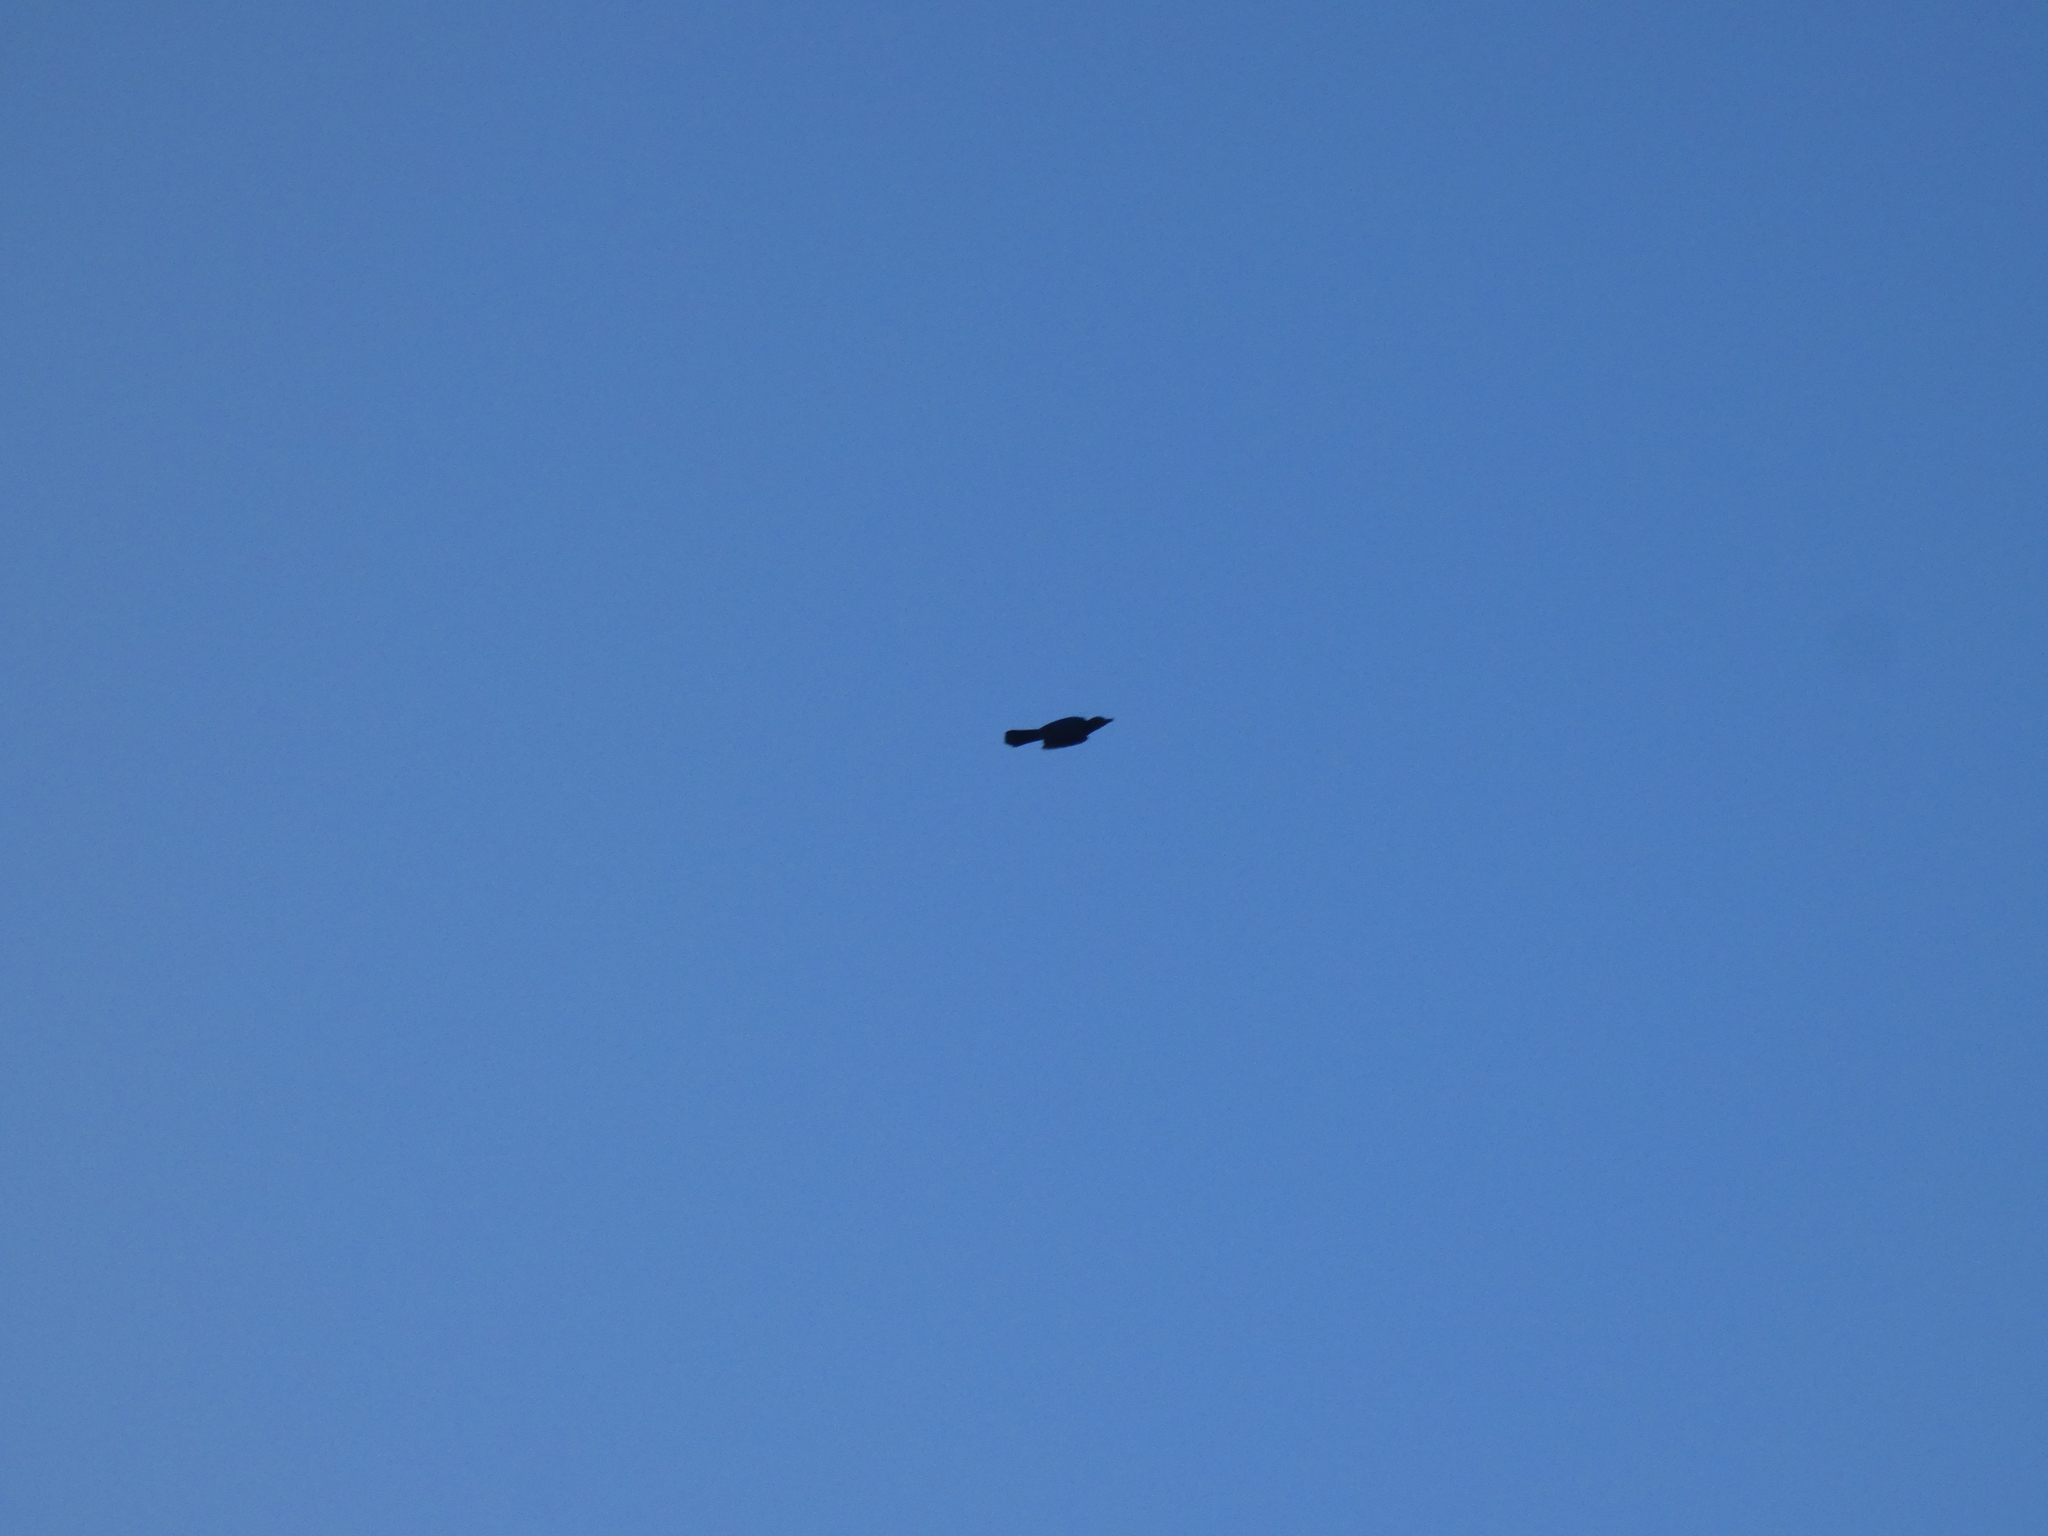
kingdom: Animalia
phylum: Chordata
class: Aves
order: Passeriformes
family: Corvidae
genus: Cyanocitta
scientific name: Cyanocitta stelleri
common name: Steller's jay
